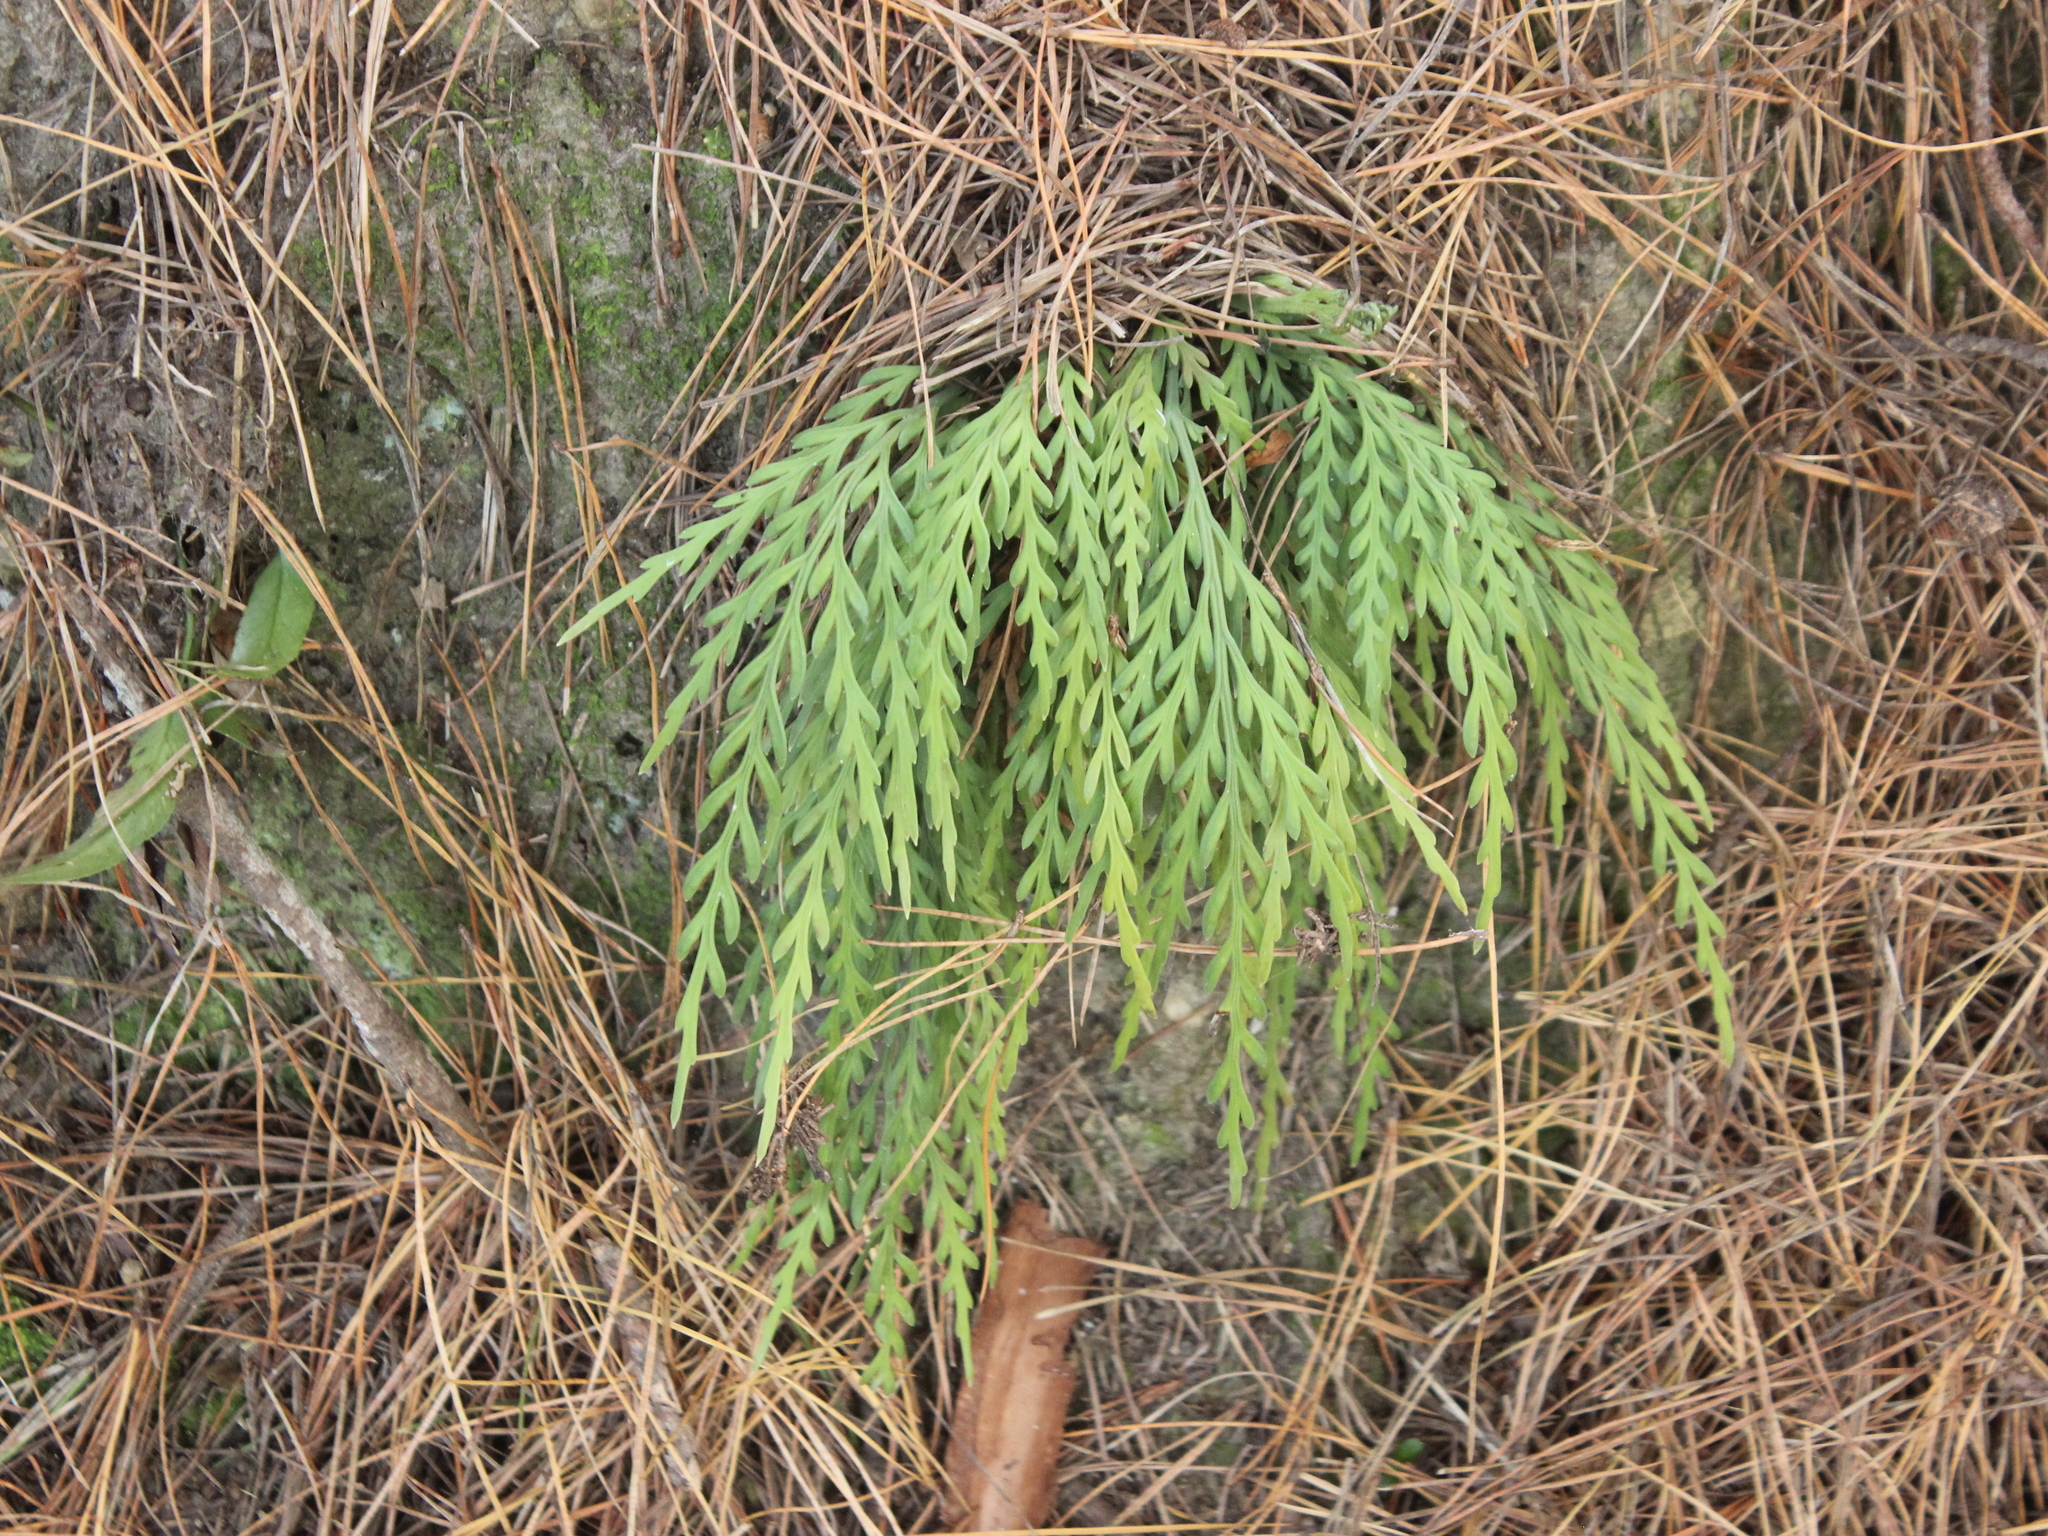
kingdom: Plantae
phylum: Tracheophyta
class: Polypodiopsida
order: Polypodiales
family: Aspleniaceae
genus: Asplenium
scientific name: Asplenium flaccidum
